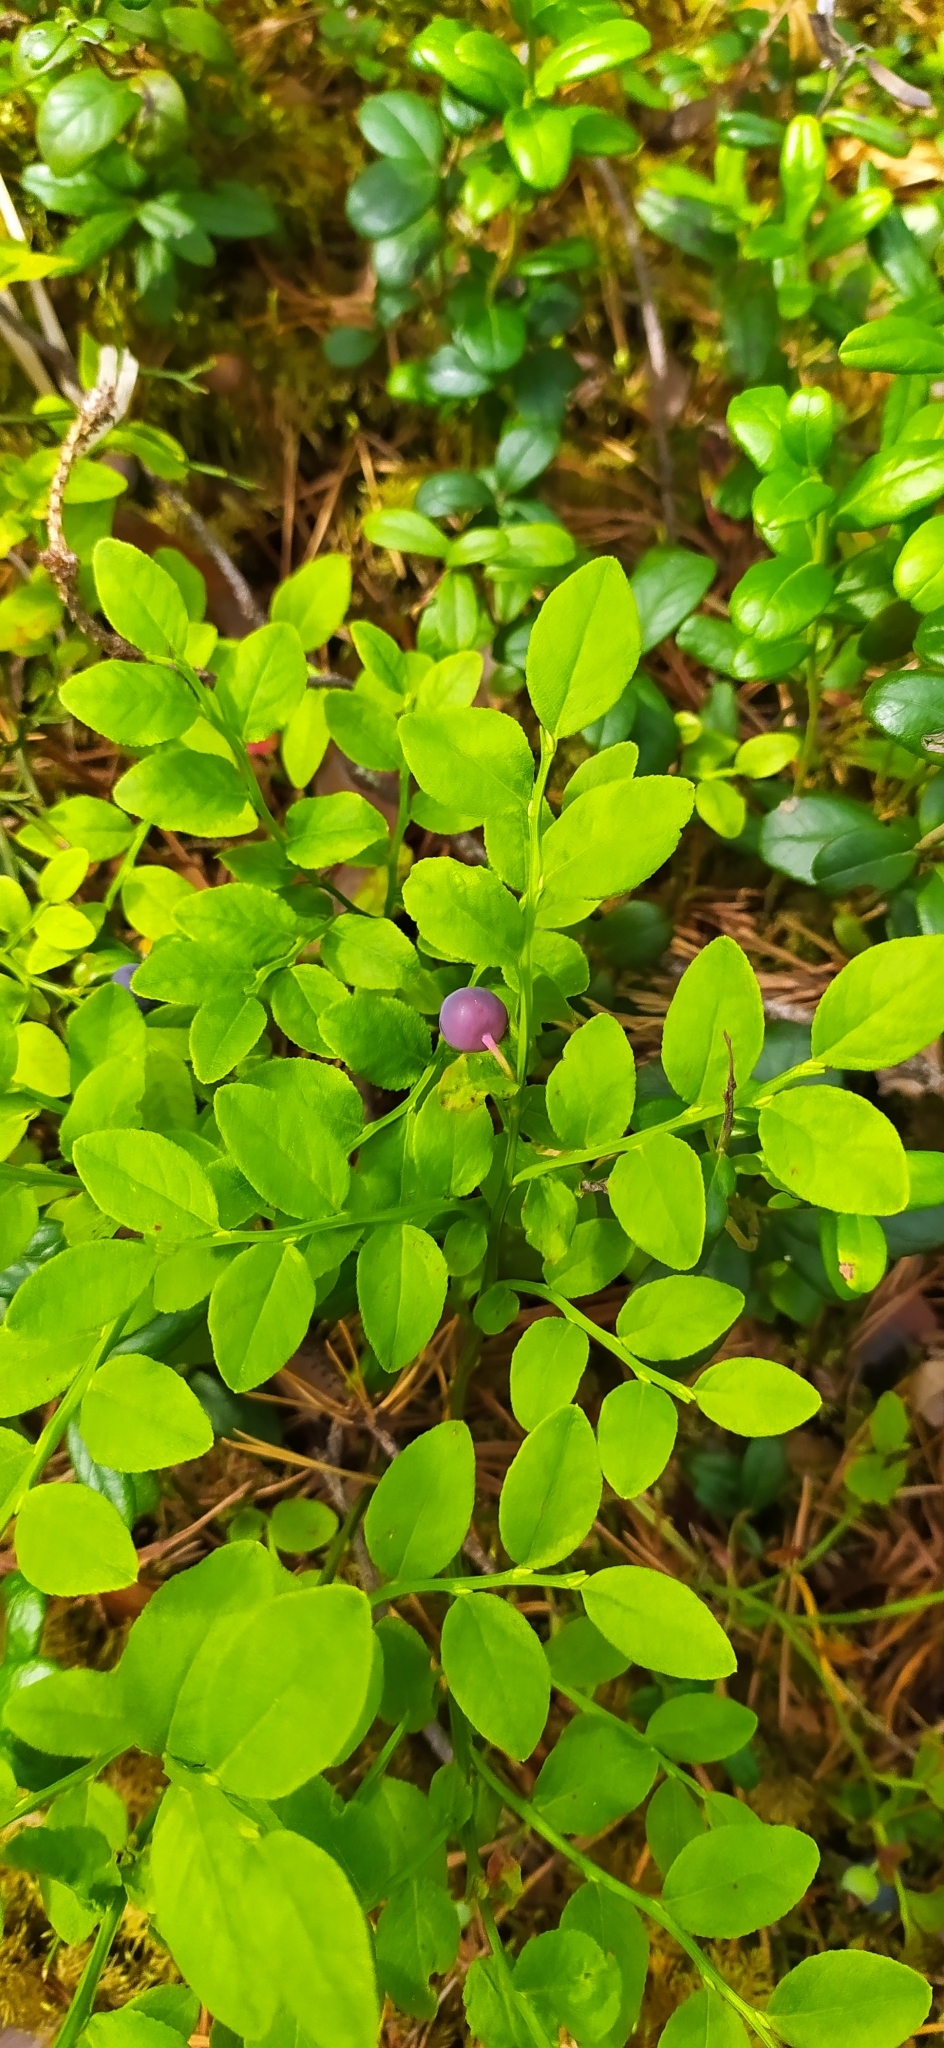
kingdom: Plantae
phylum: Tracheophyta
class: Magnoliopsida
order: Ericales
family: Ericaceae
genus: Vaccinium
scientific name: Vaccinium myrtillus
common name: Bilberry
